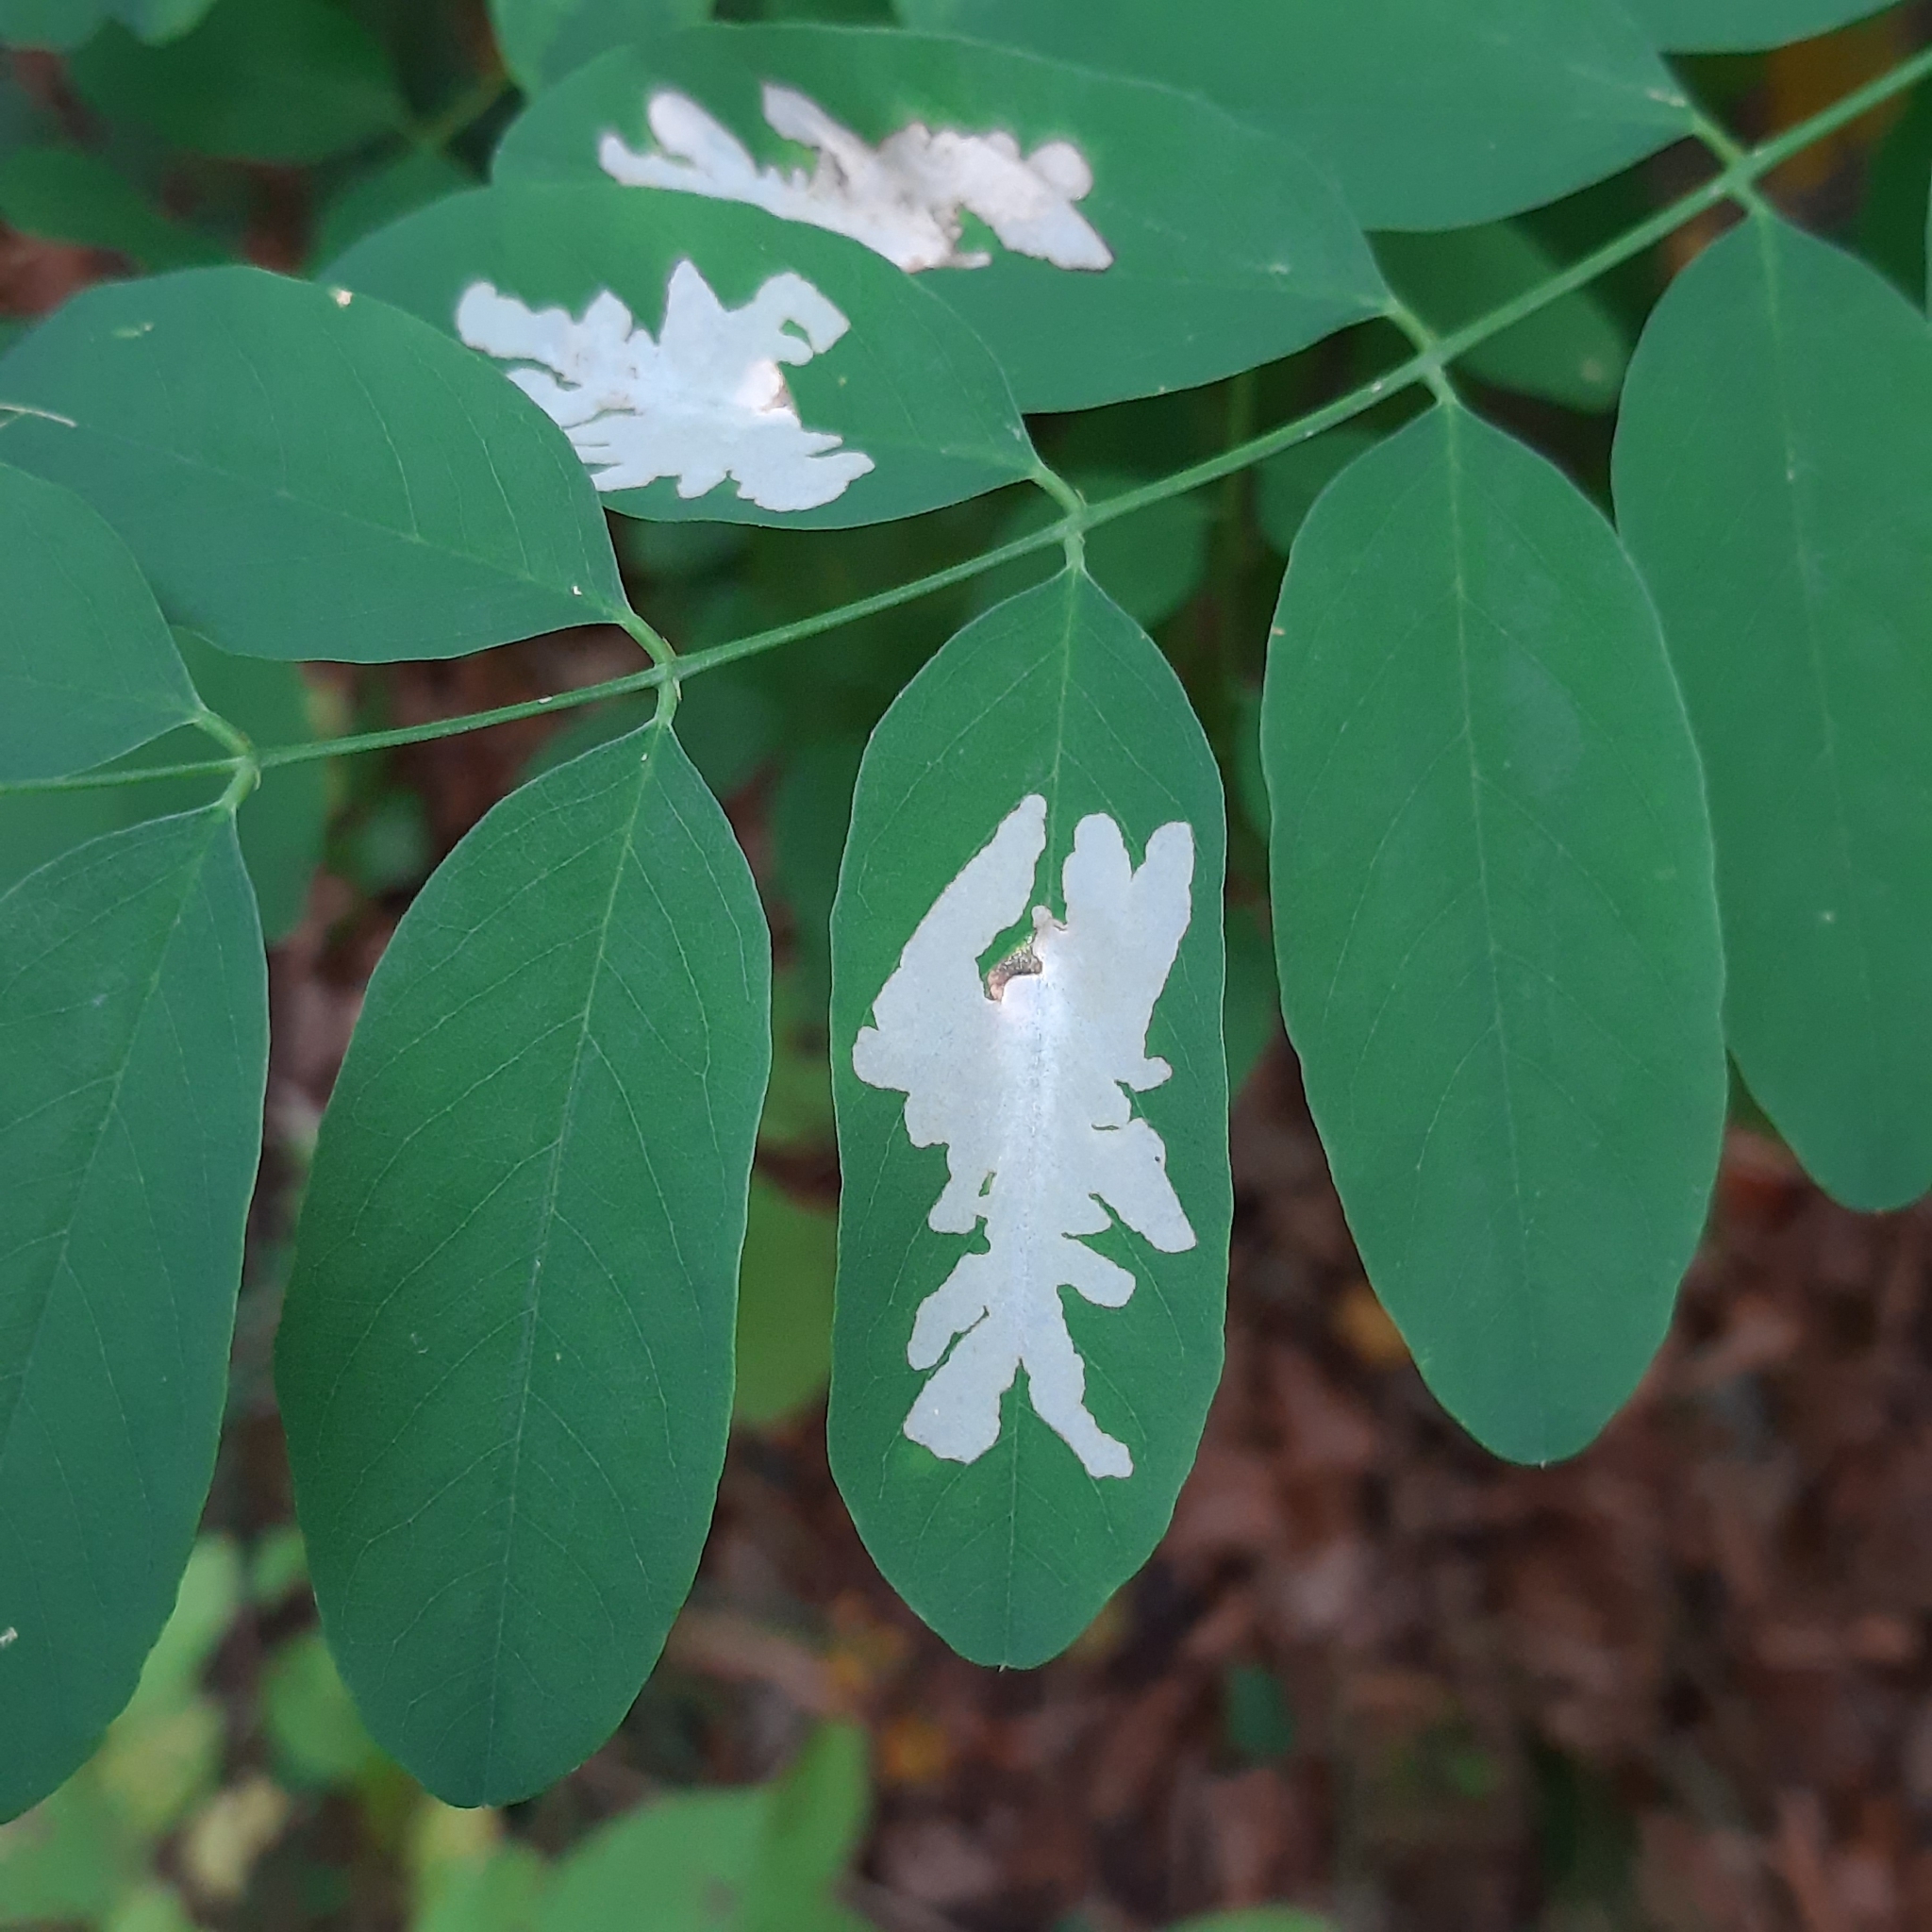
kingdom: Animalia
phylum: Arthropoda
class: Insecta
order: Lepidoptera
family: Gracillariidae
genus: Parectopa
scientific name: Parectopa robiniella
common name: Locust digitate leafminer
